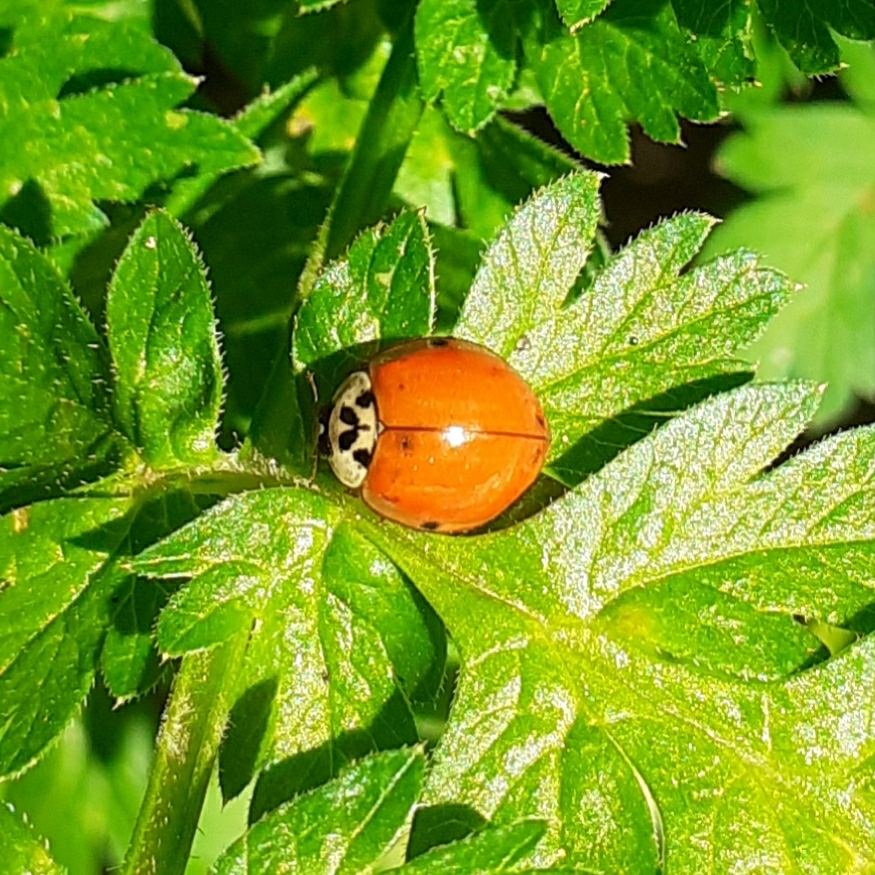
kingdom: Animalia
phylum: Arthropoda
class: Insecta
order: Coleoptera
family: Coccinellidae
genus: Harmonia
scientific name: Harmonia axyridis
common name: Harlequin ladybird
